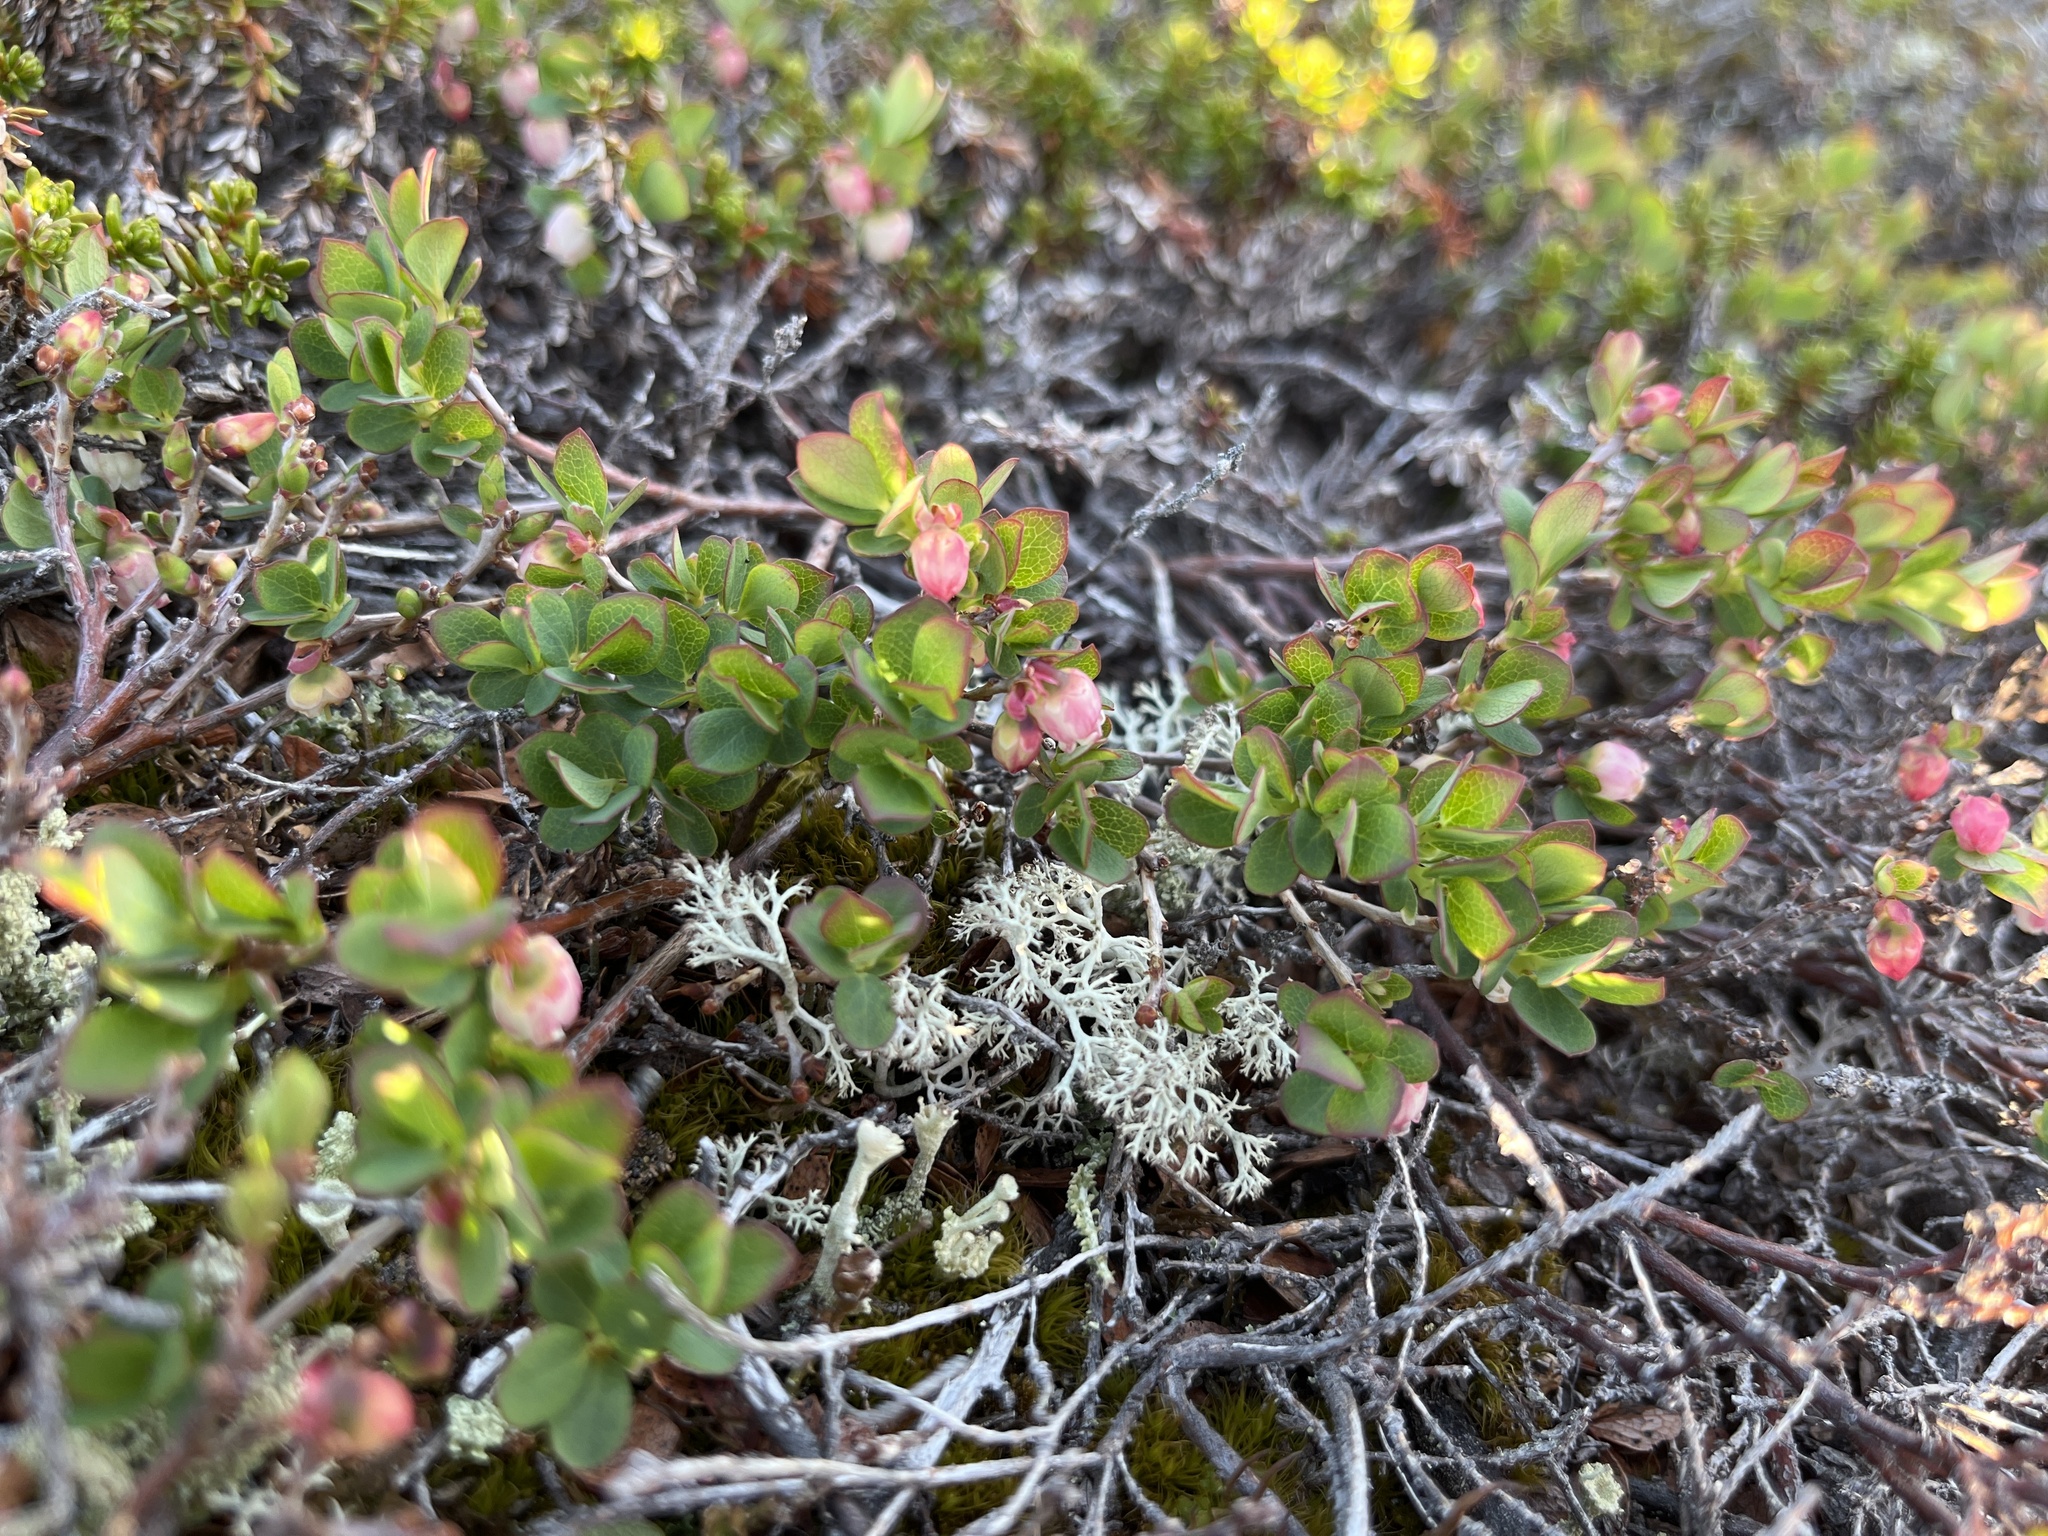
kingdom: Plantae
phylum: Tracheophyta
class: Magnoliopsida
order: Ericales
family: Ericaceae
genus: Vaccinium
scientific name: Vaccinium uliginosum
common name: Bog bilberry
